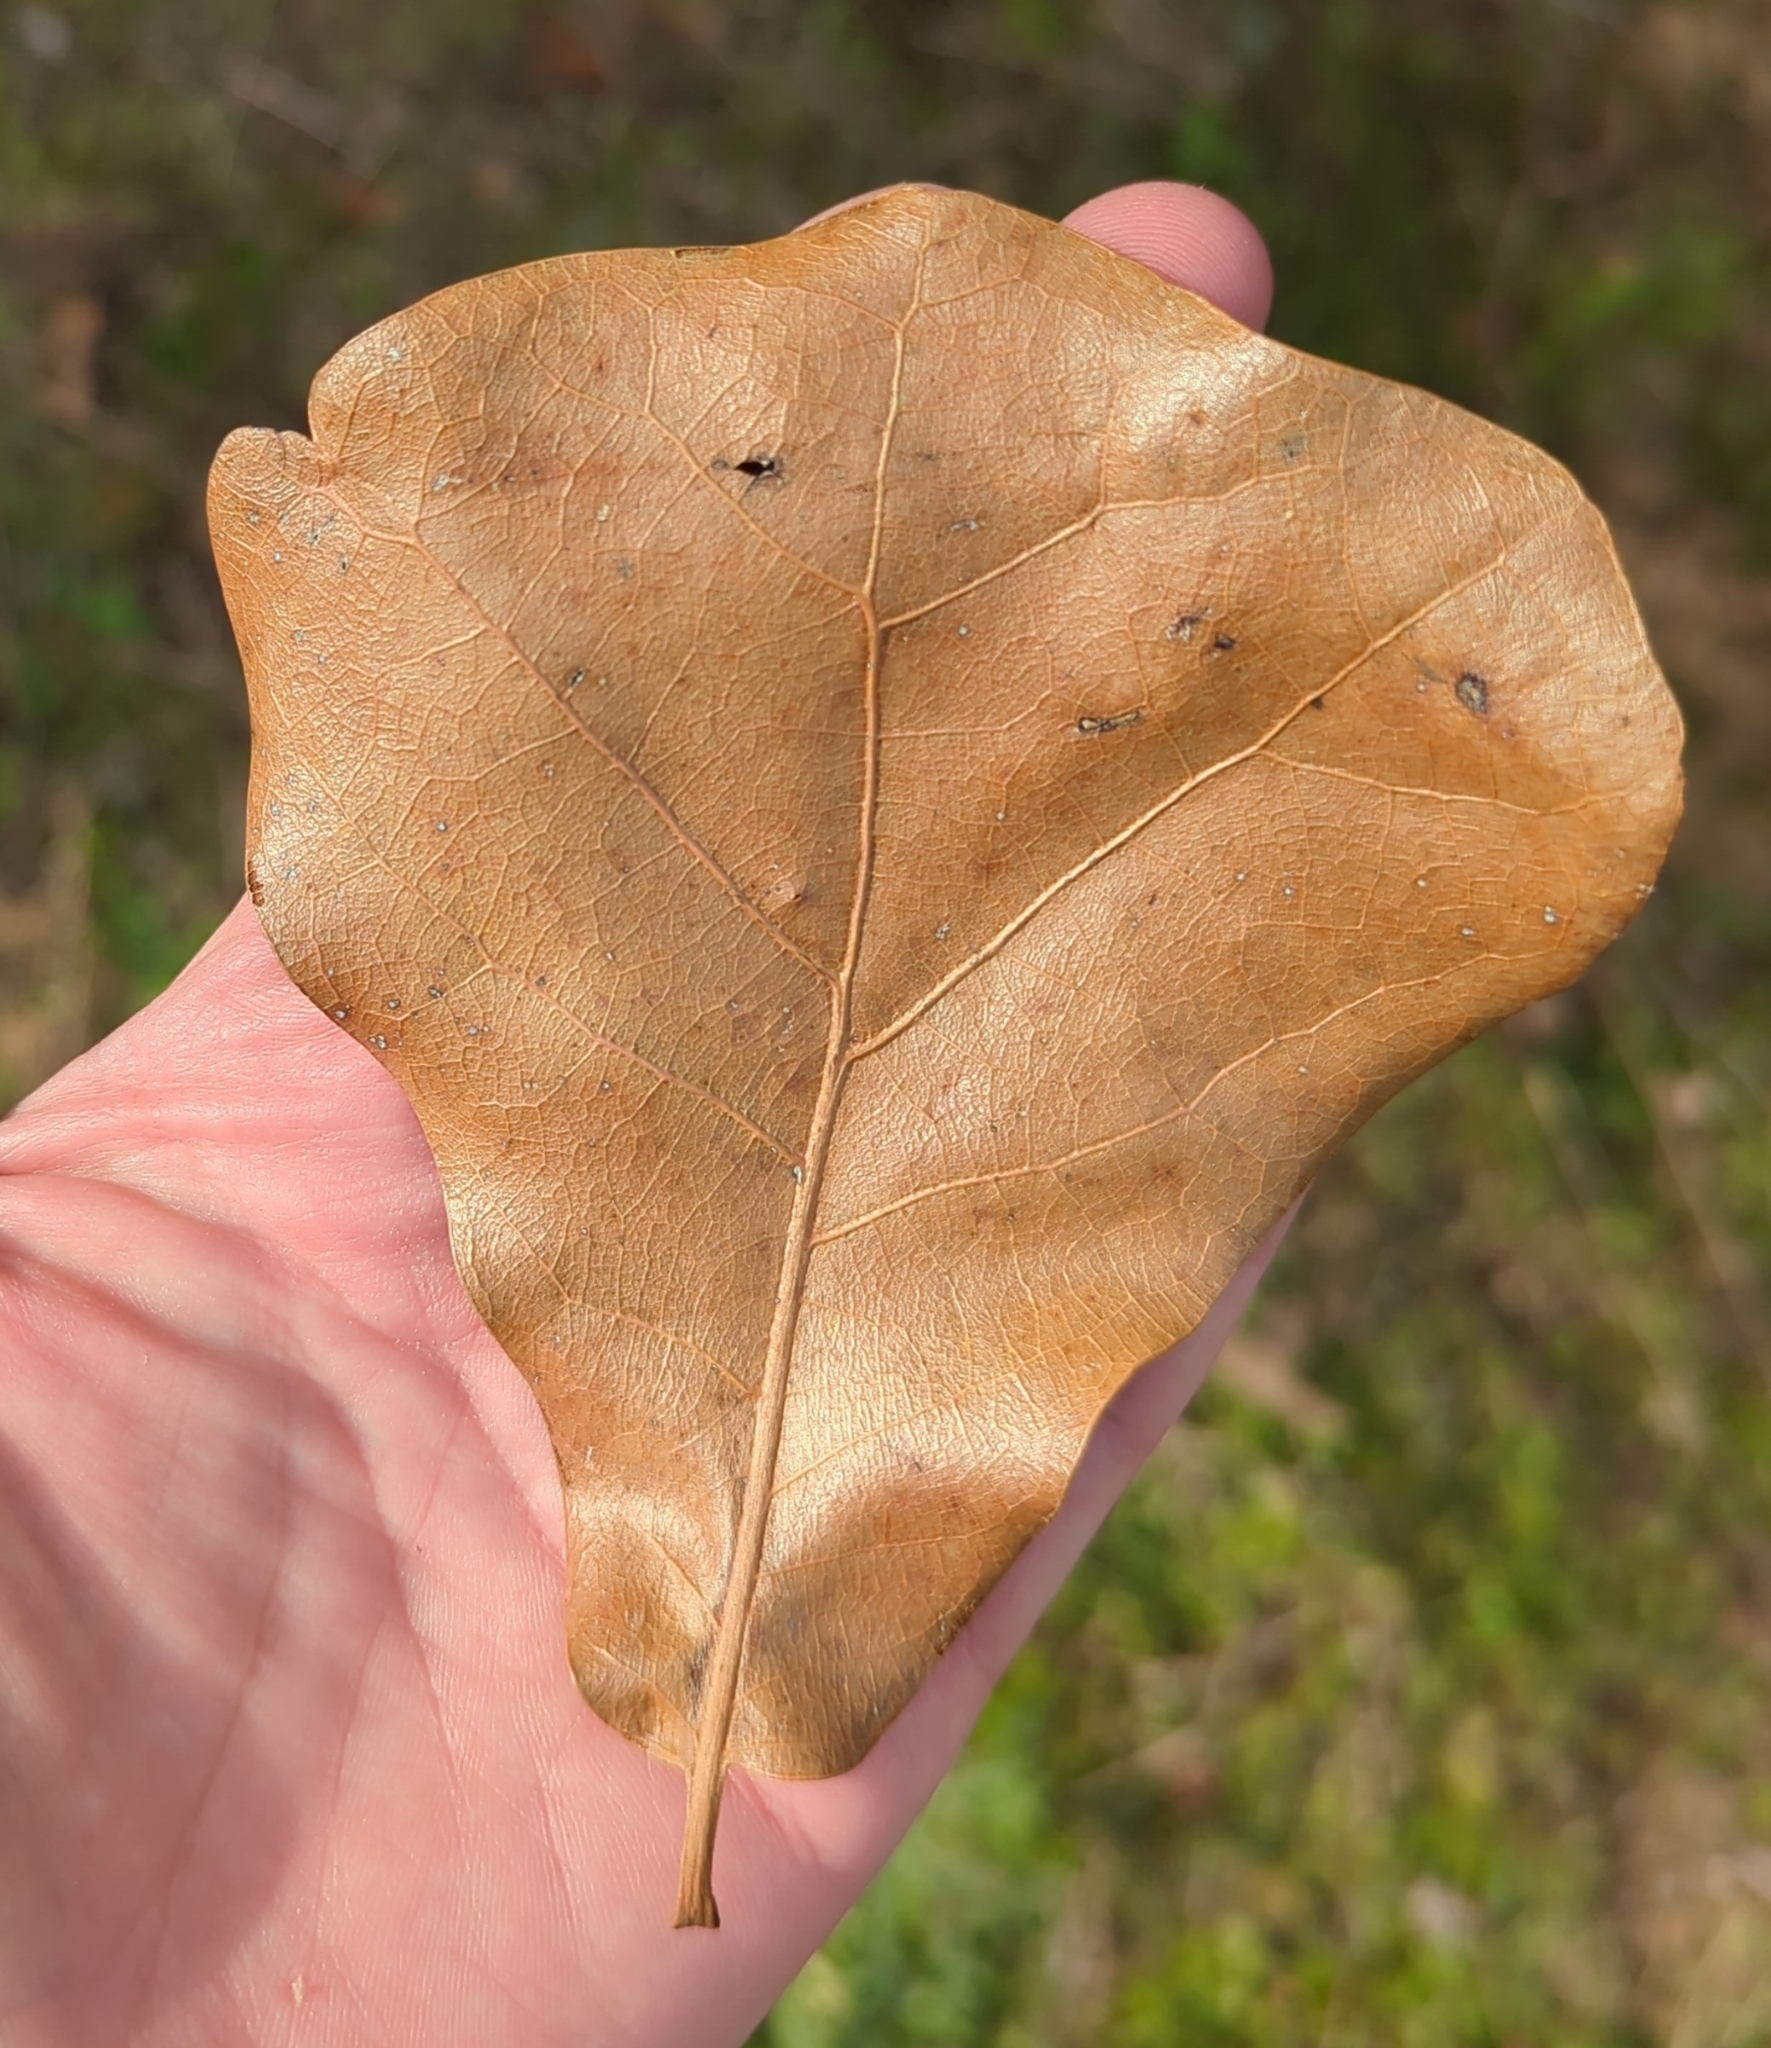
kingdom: Plantae
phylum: Tracheophyta
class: Magnoliopsida
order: Fagales
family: Fagaceae
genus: Quercus
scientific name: Quercus marilandica
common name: Blackjack oak
